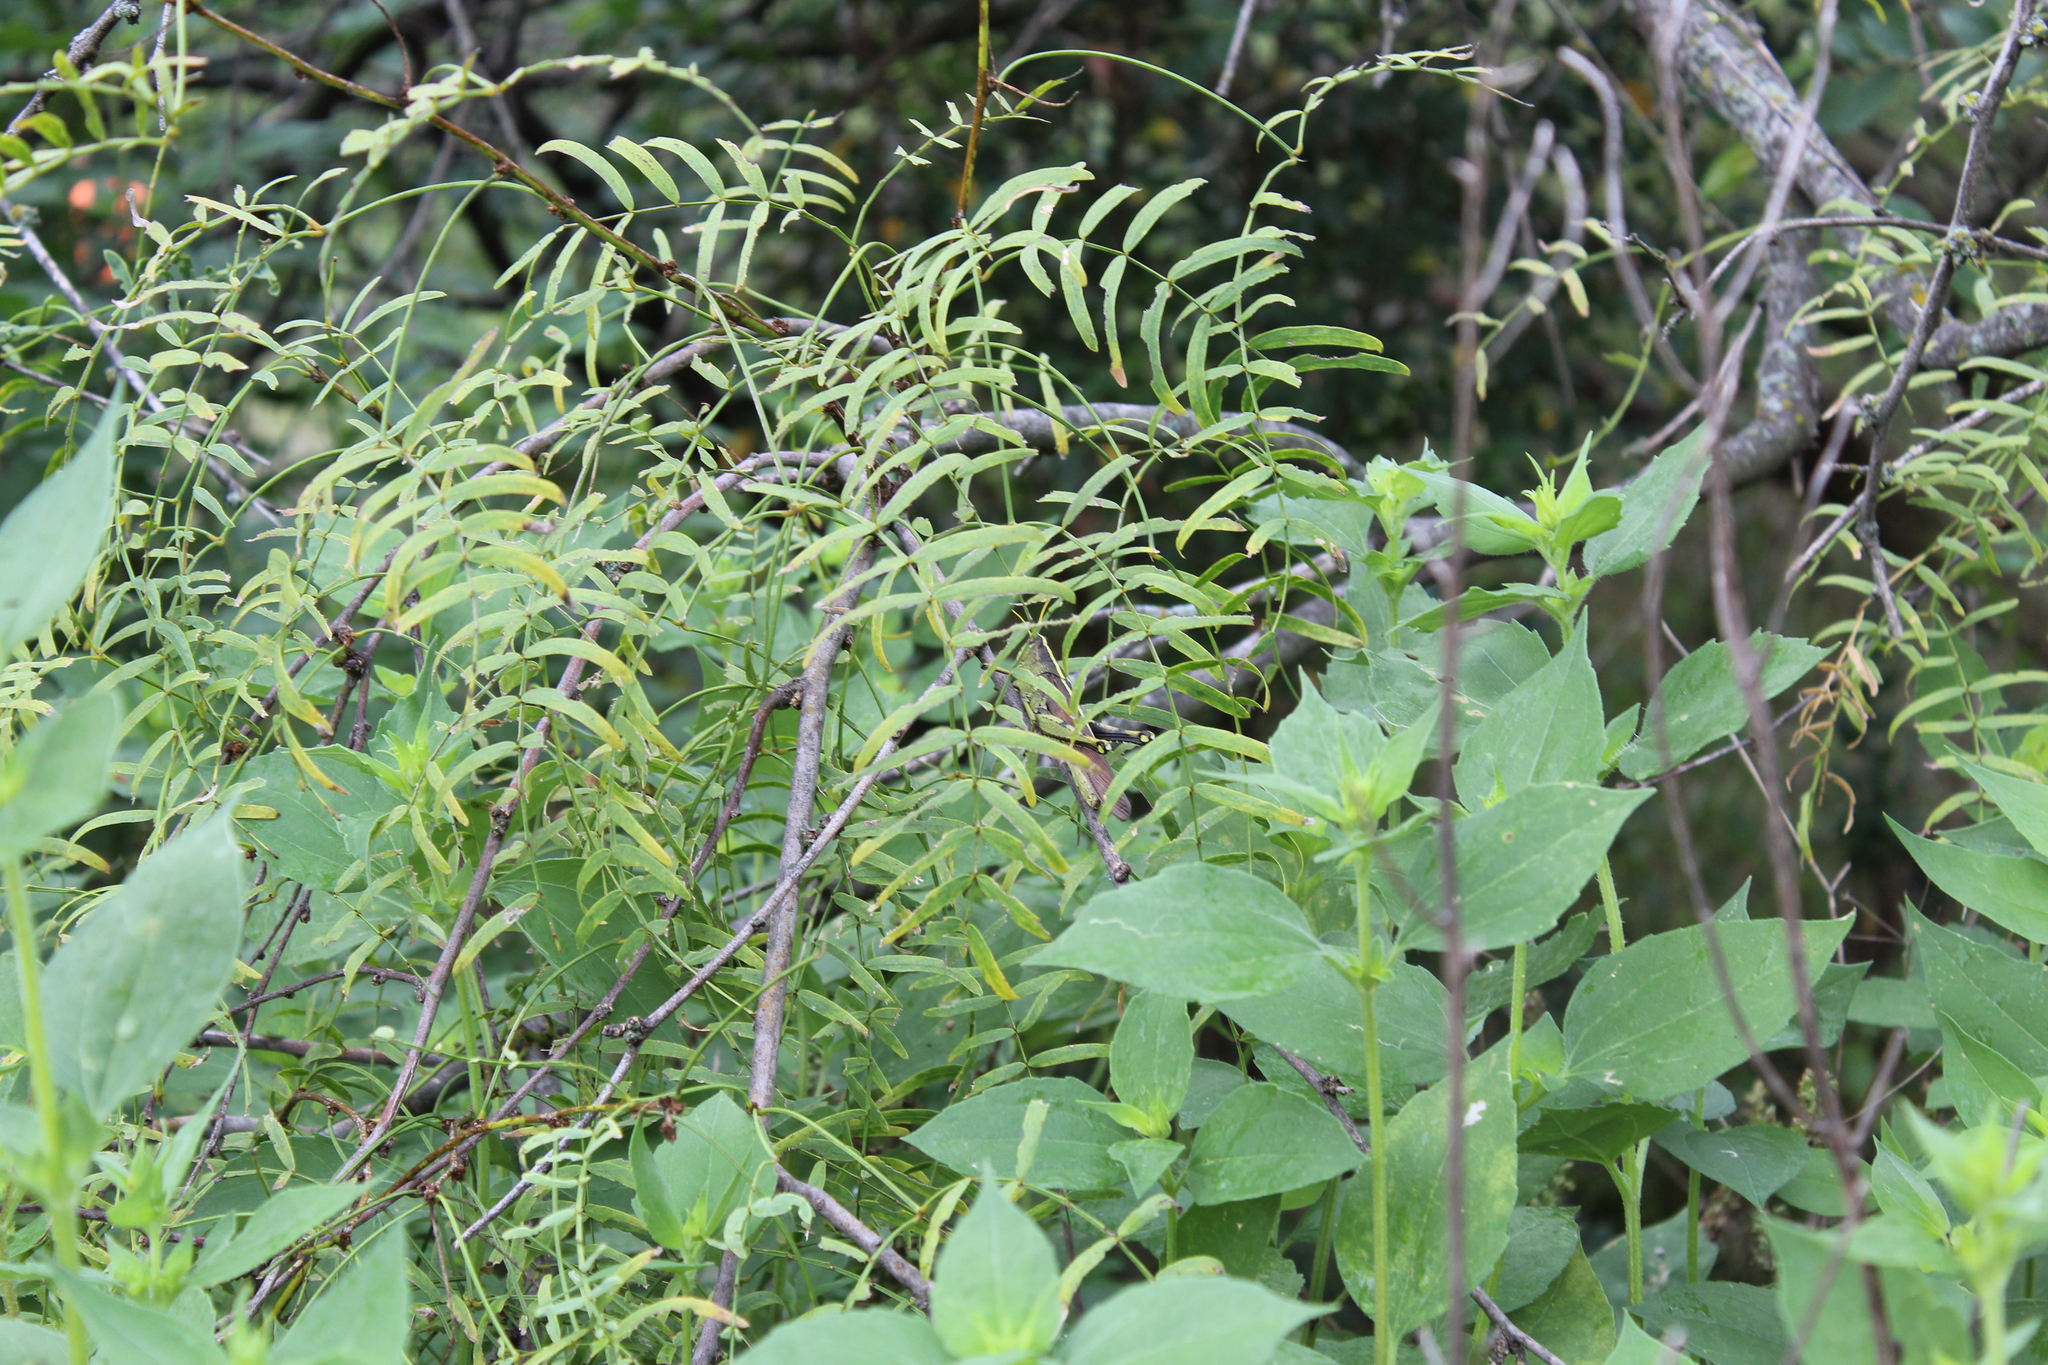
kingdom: Animalia
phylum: Arthropoda
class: Insecta
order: Orthoptera
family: Acrididae
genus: Schistocerca
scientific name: Schistocerca obscura
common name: Obscure bird grasshopper
